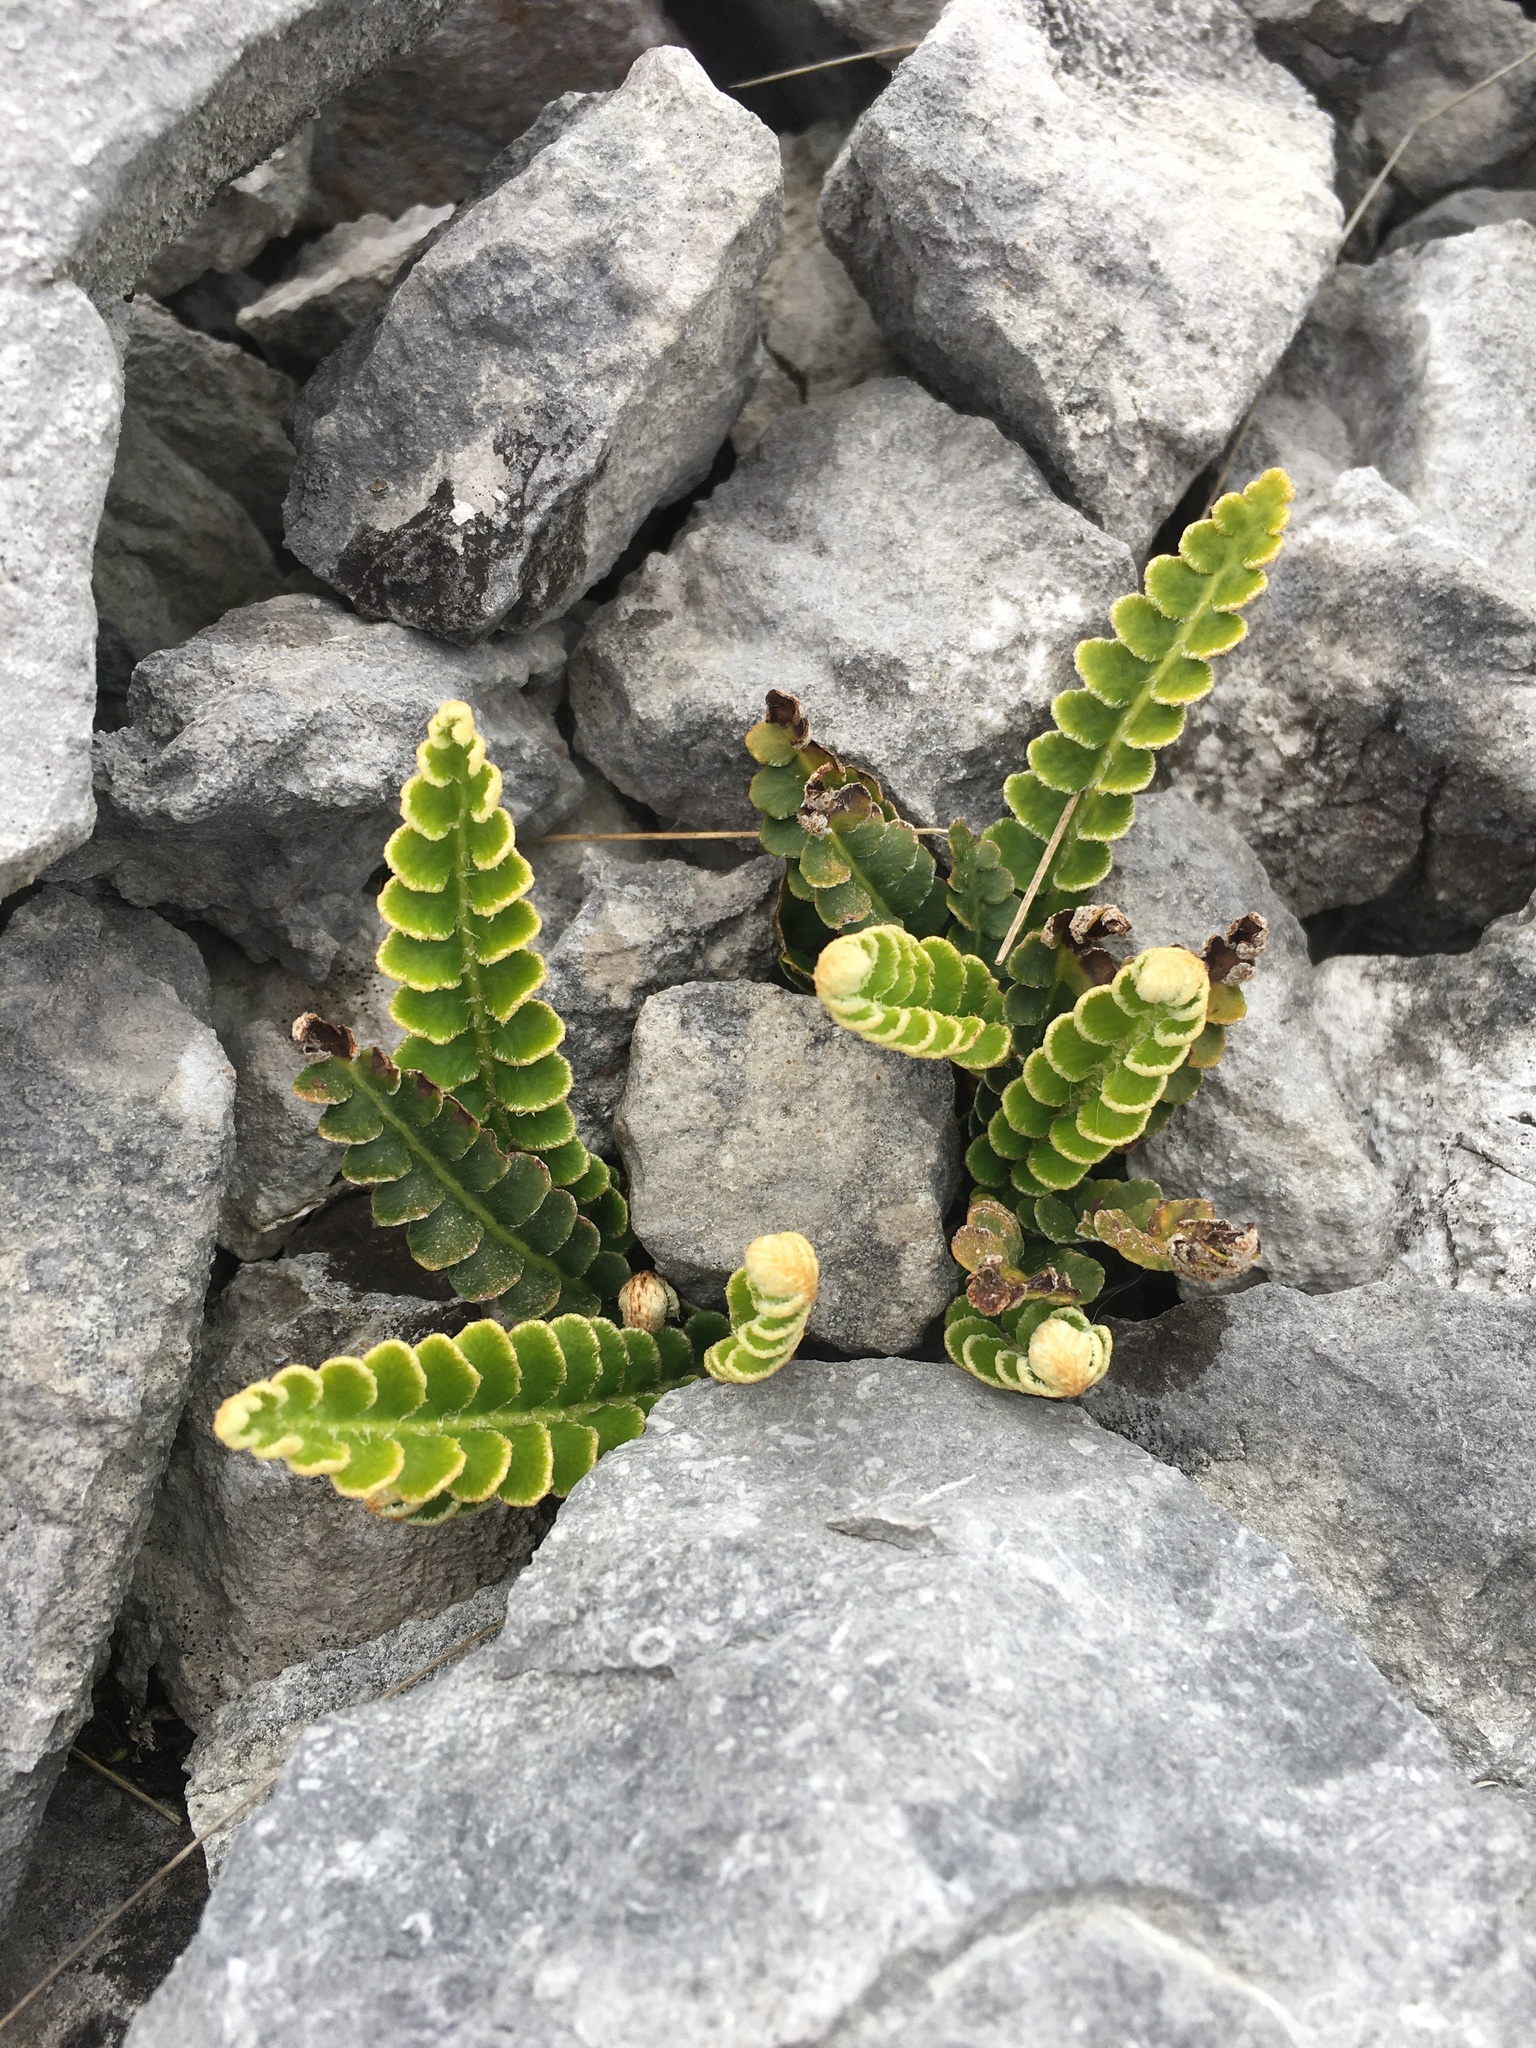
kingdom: Plantae
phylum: Tracheophyta
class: Polypodiopsida
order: Polypodiales
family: Aspleniaceae
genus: Asplenium
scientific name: Asplenium ceterach
